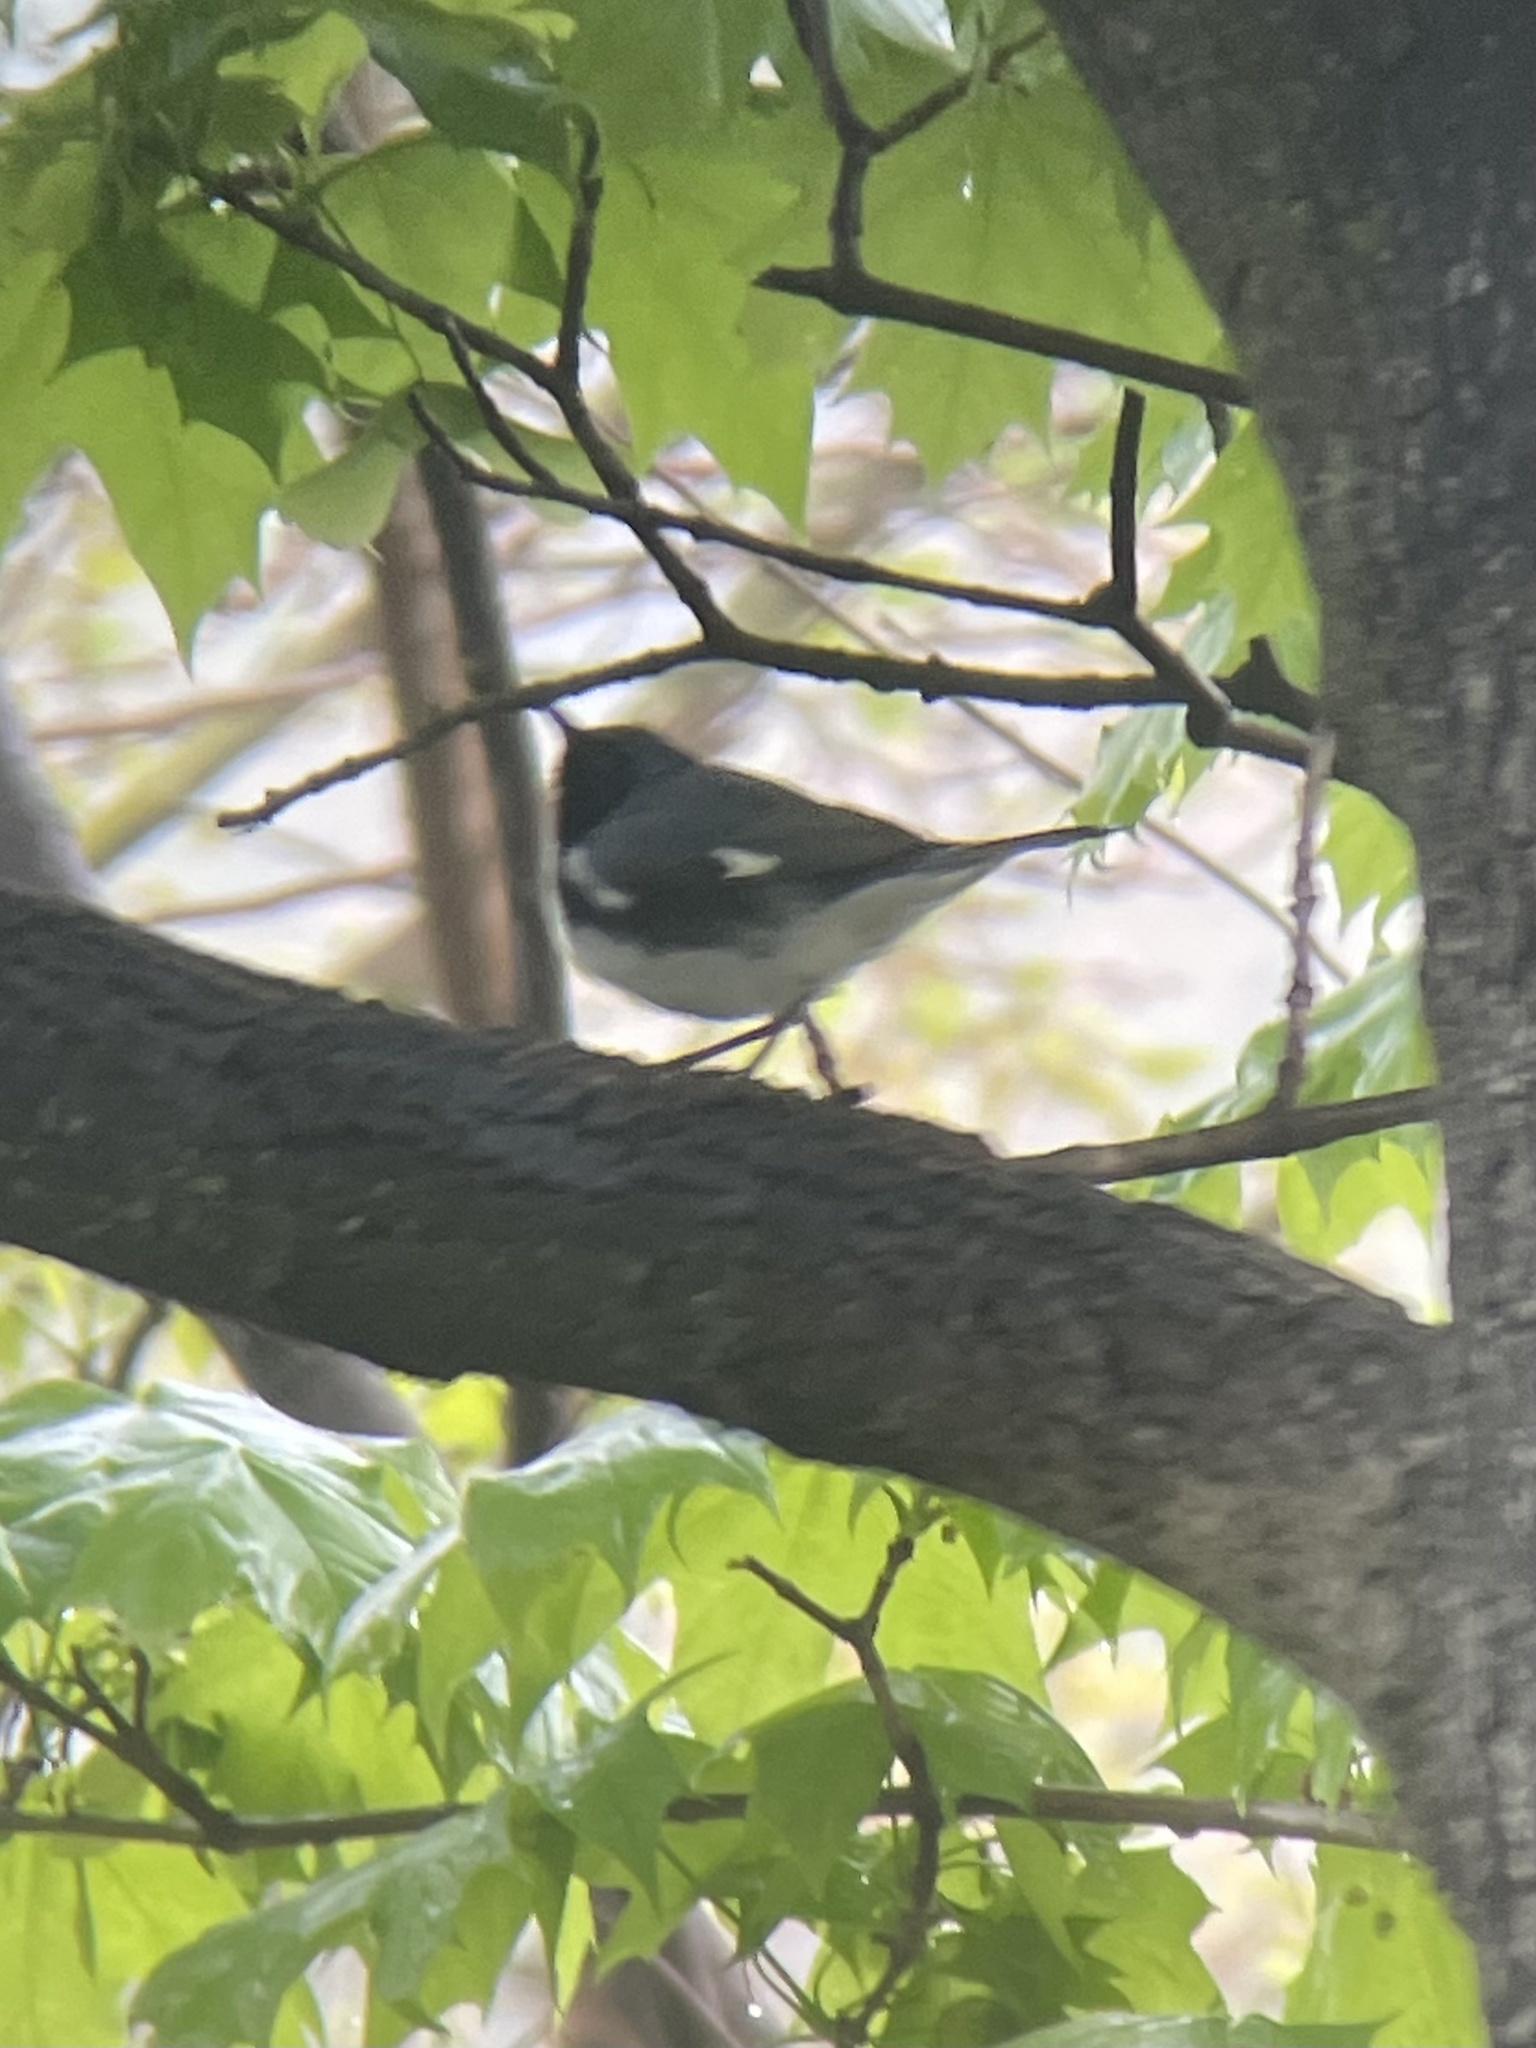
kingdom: Animalia
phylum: Chordata
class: Aves
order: Passeriformes
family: Parulidae
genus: Setophaga
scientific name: Setophaga caerulescens
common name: Black-throated blue warbler
